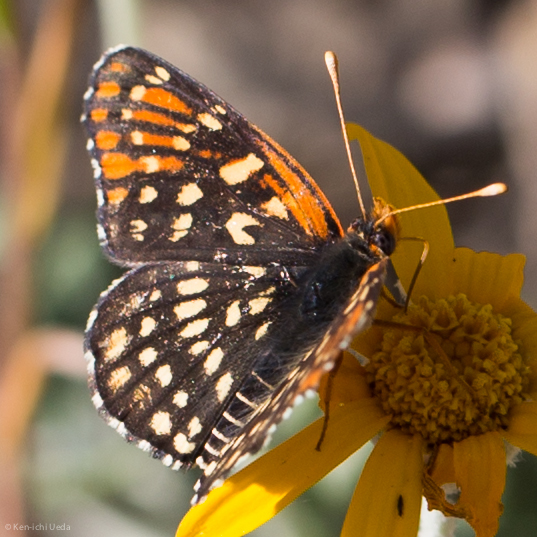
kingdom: Animalia
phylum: Arthropoda
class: Insecta
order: Lepidoptera
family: Nymphalidae
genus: Thessalia
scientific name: Thessalia leanira
